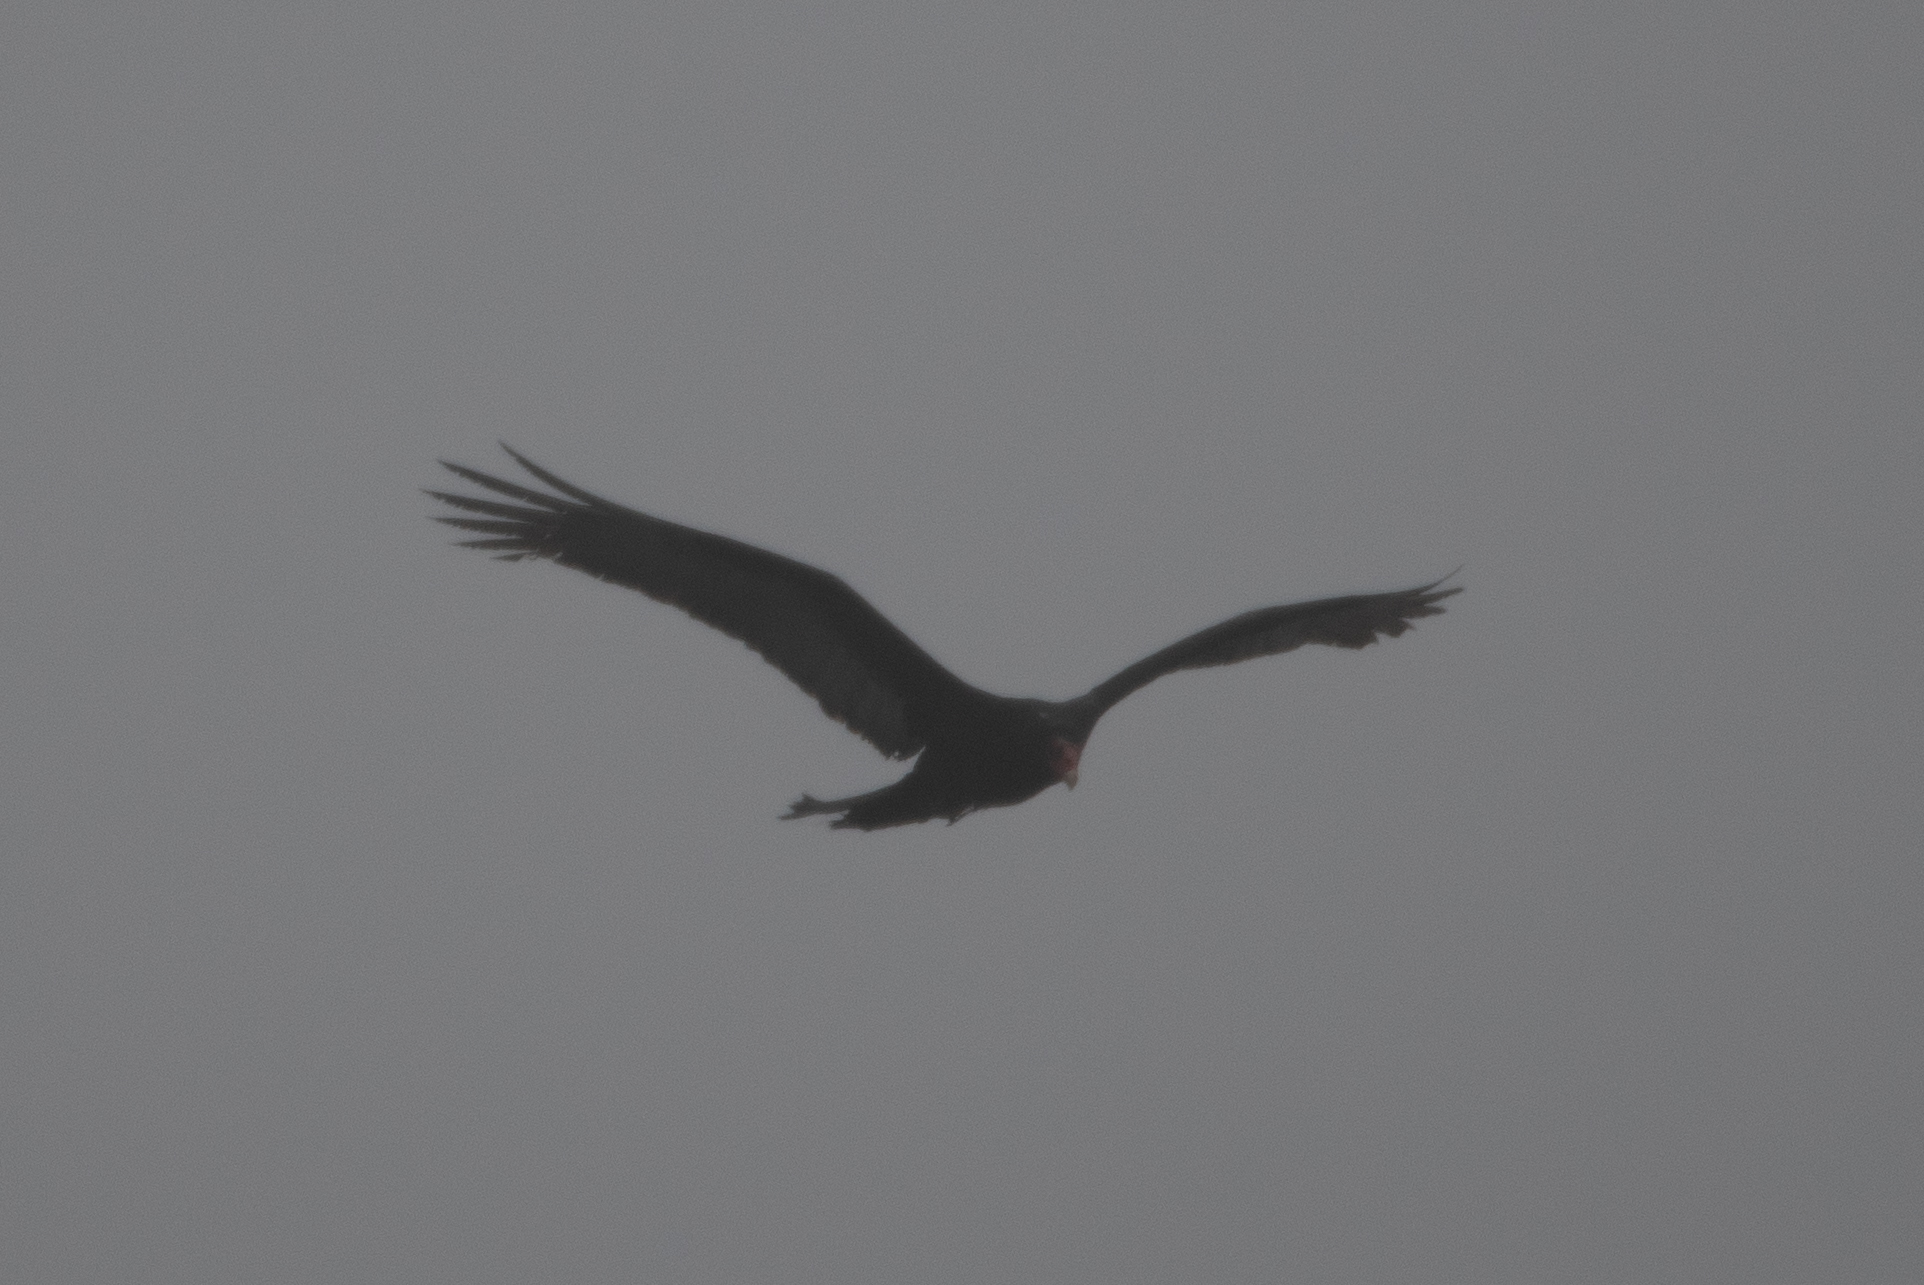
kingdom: Animalia
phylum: Chordata
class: Aves
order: Accipitriformes
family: Cathartidae
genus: Cathartes
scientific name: Cathartes aura
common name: Turkey vulture
